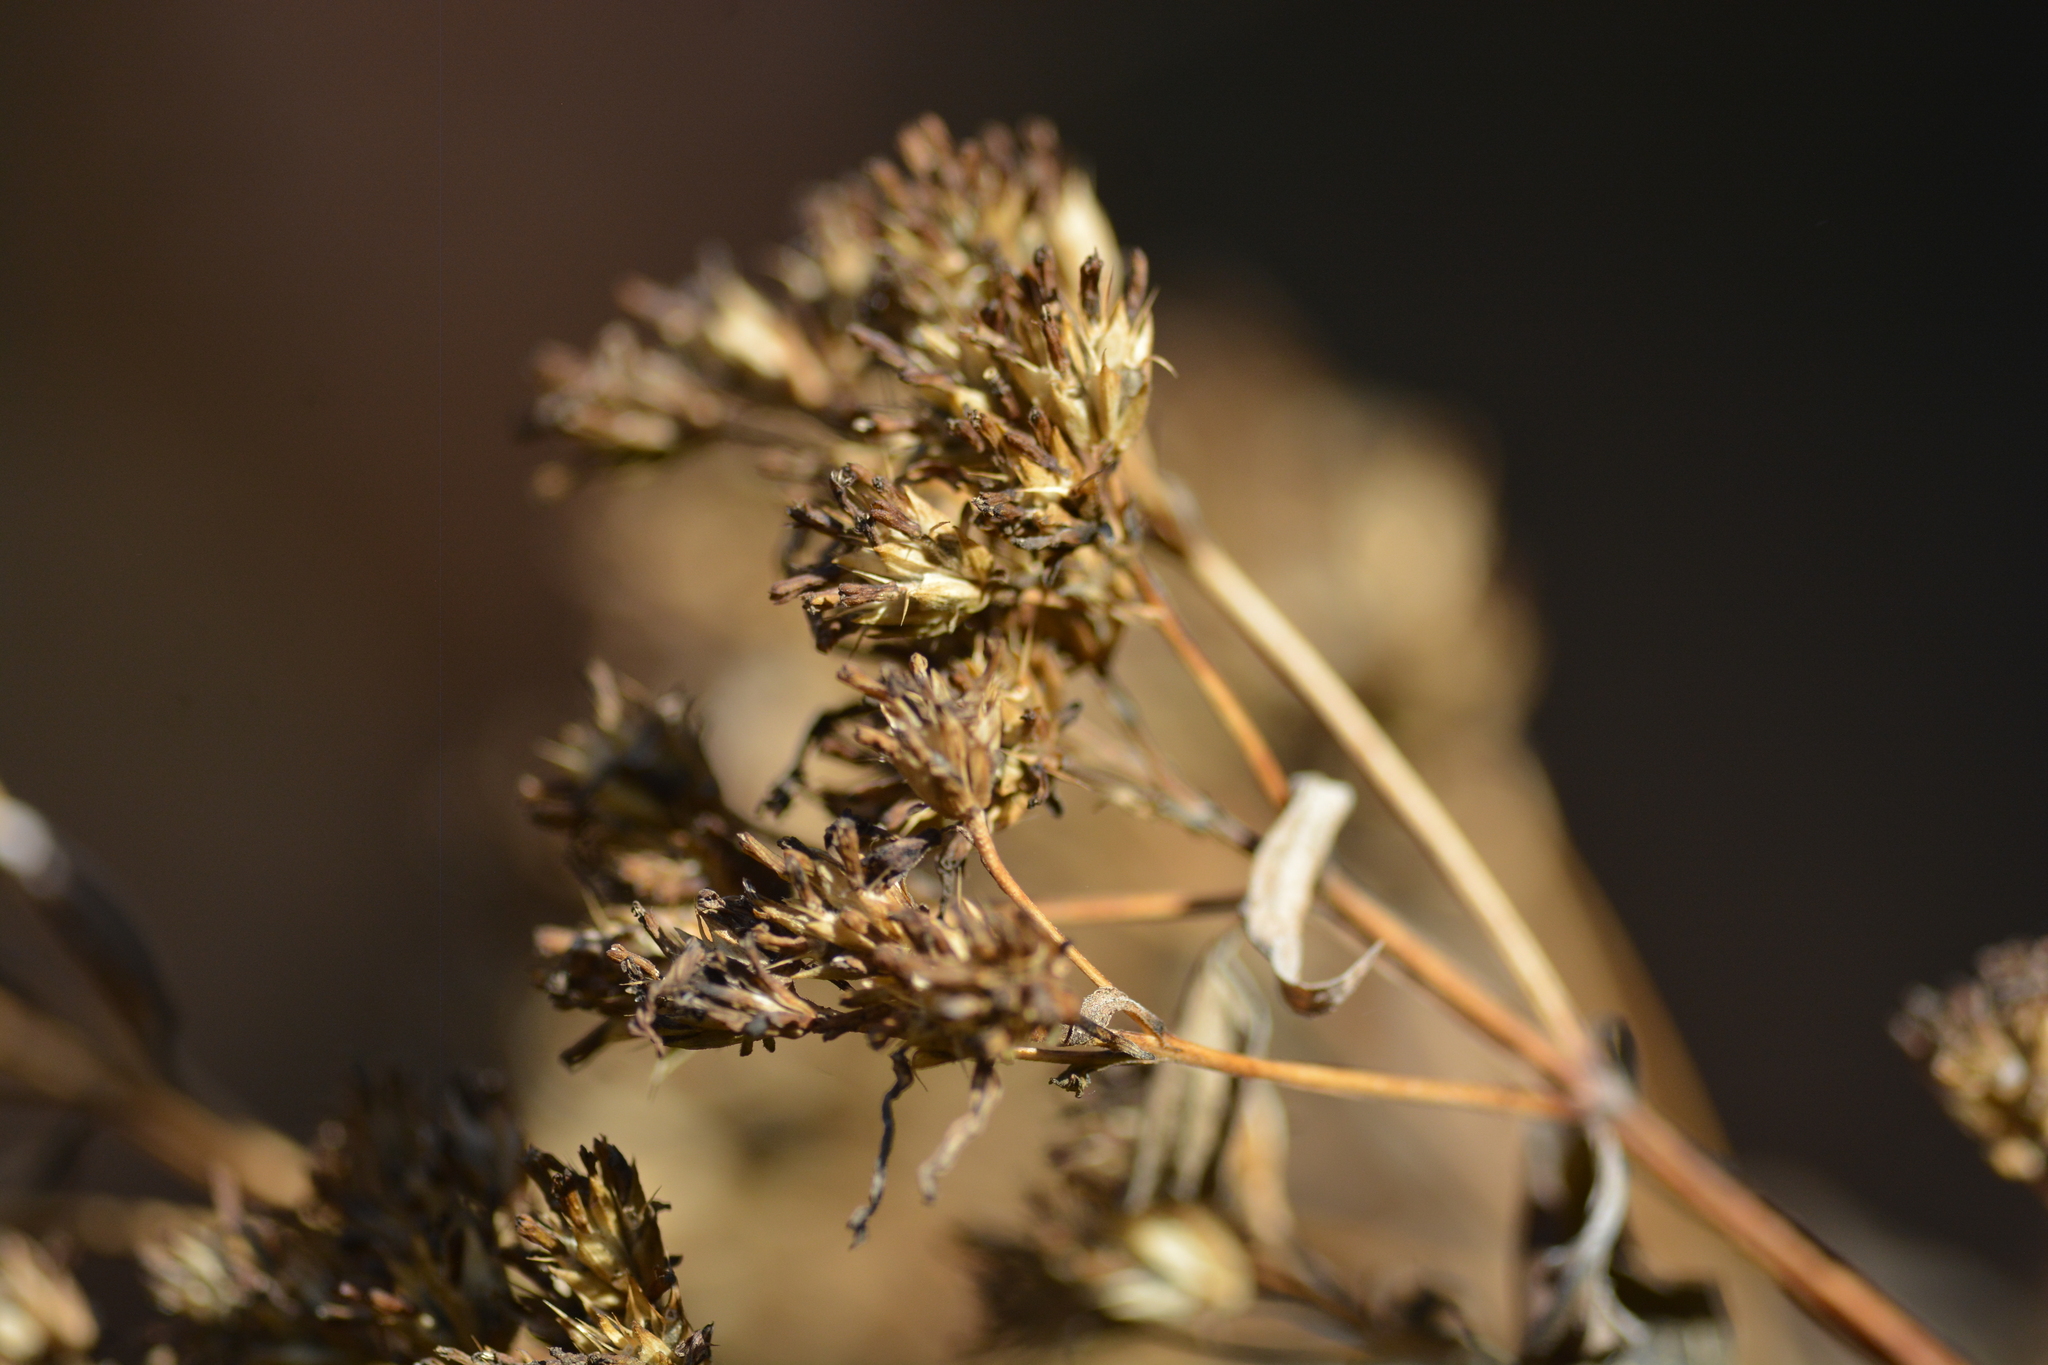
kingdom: Plantae
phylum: Tracheophyta
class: Magnoliopsida
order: Asterales
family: Asteraceae
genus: Verbesina
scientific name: Verbesina occidentalis
